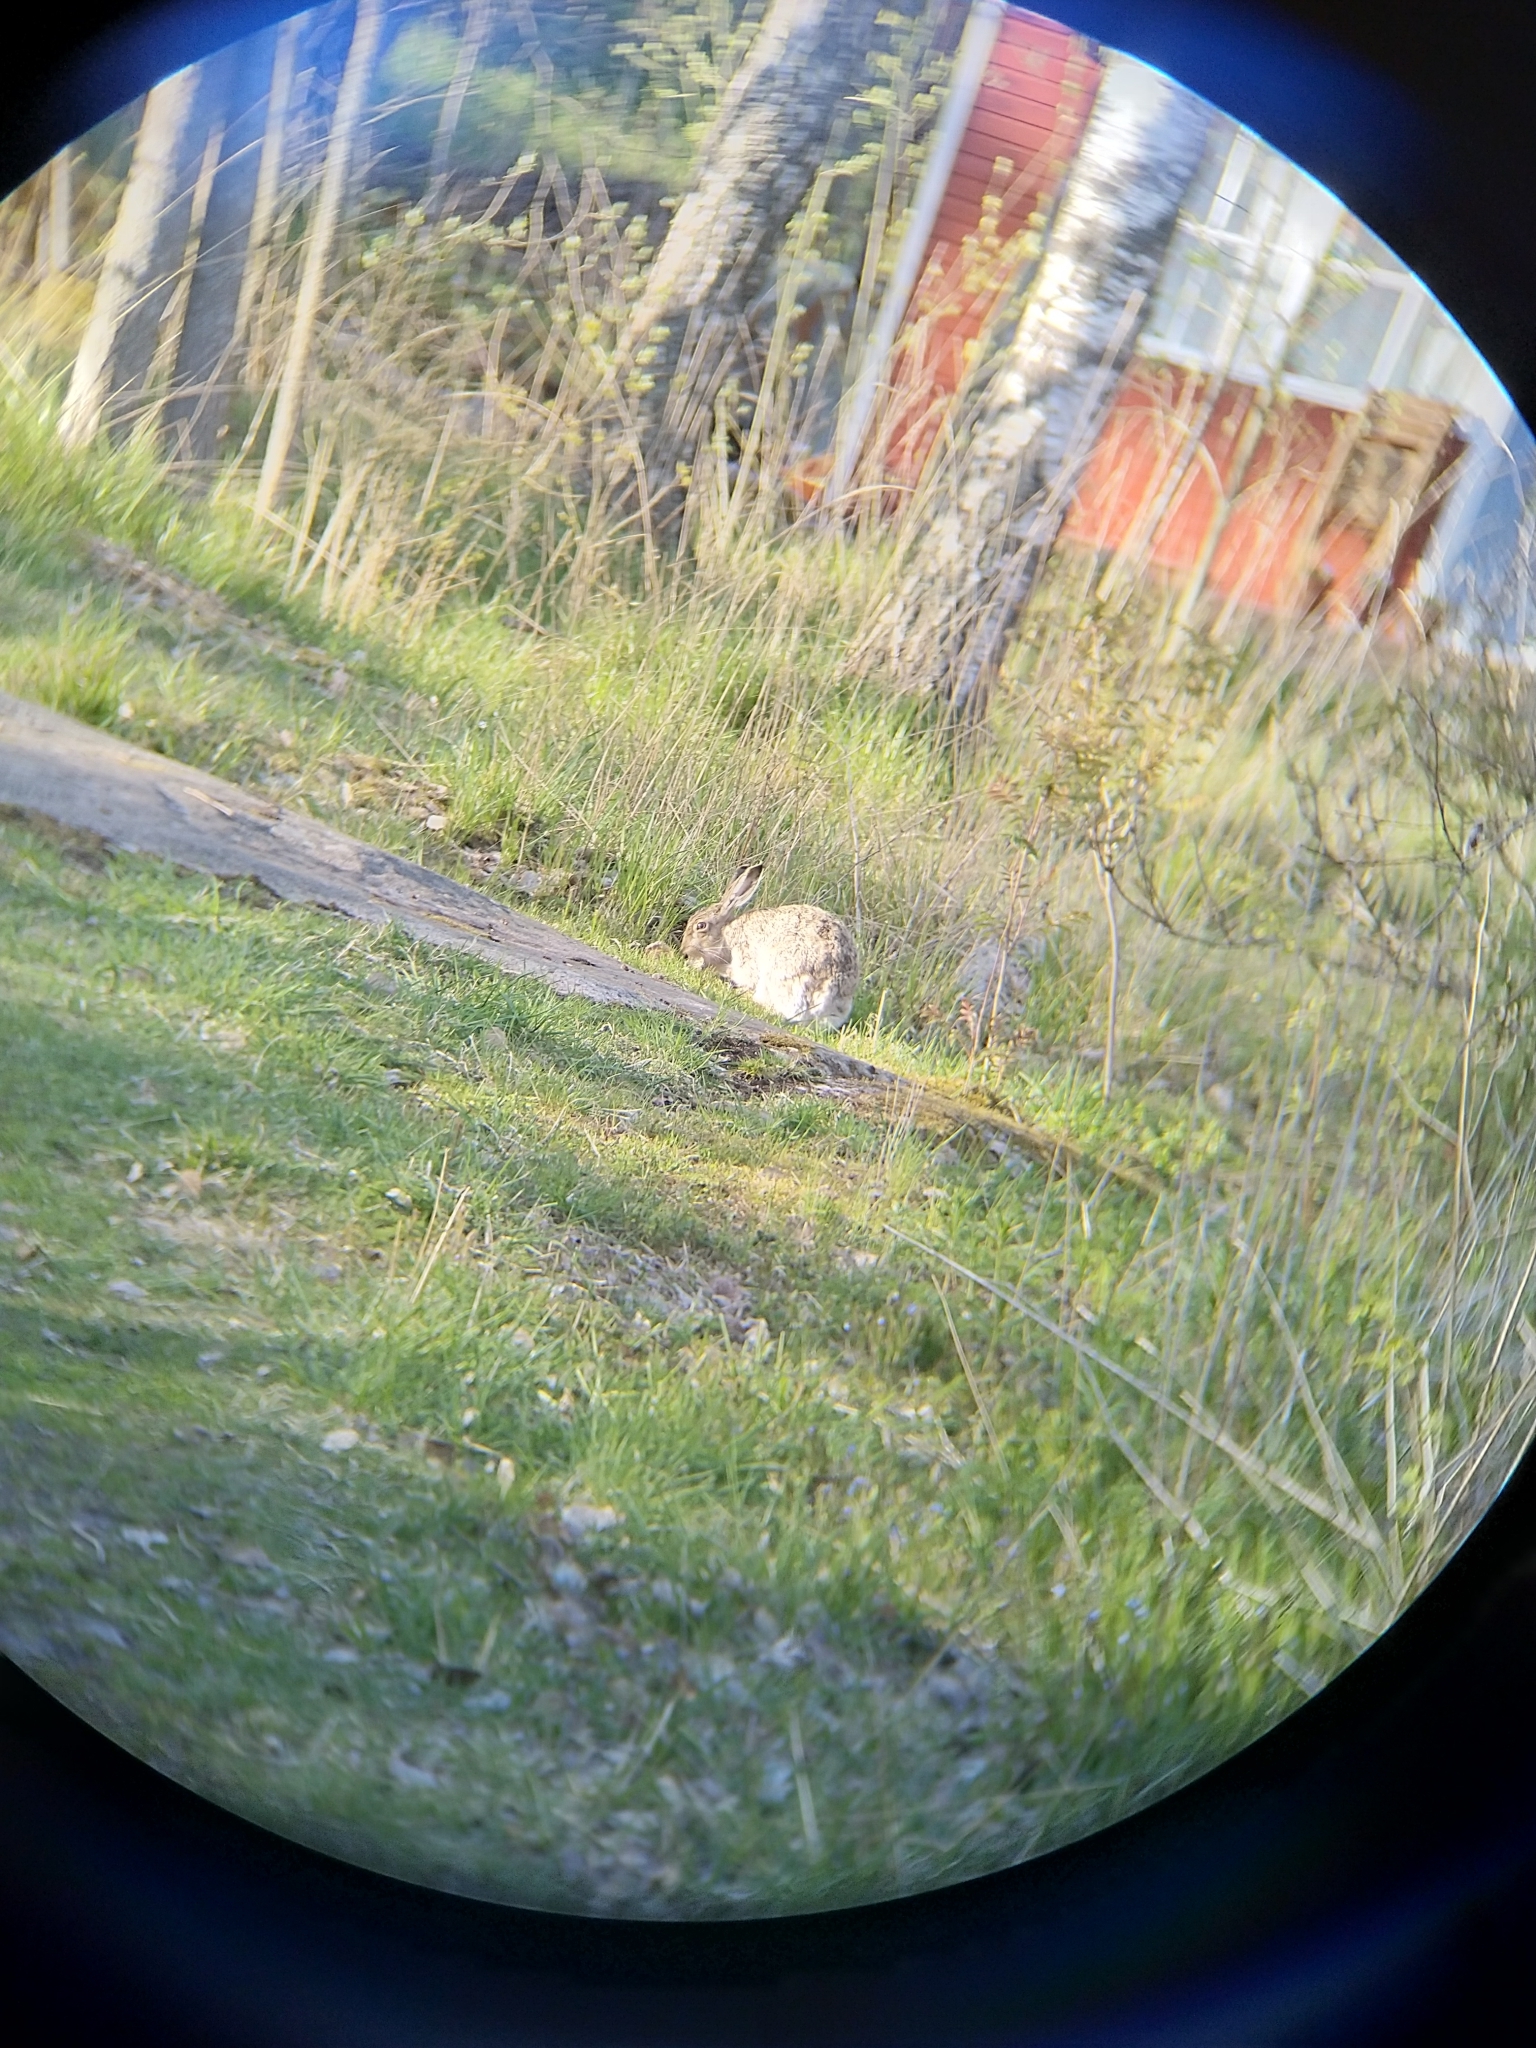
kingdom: Animalia
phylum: Chordata
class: Mammalia
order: Lagomorpha
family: Leporidae
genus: Lepus
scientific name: Lepus europaeus
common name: European hare
